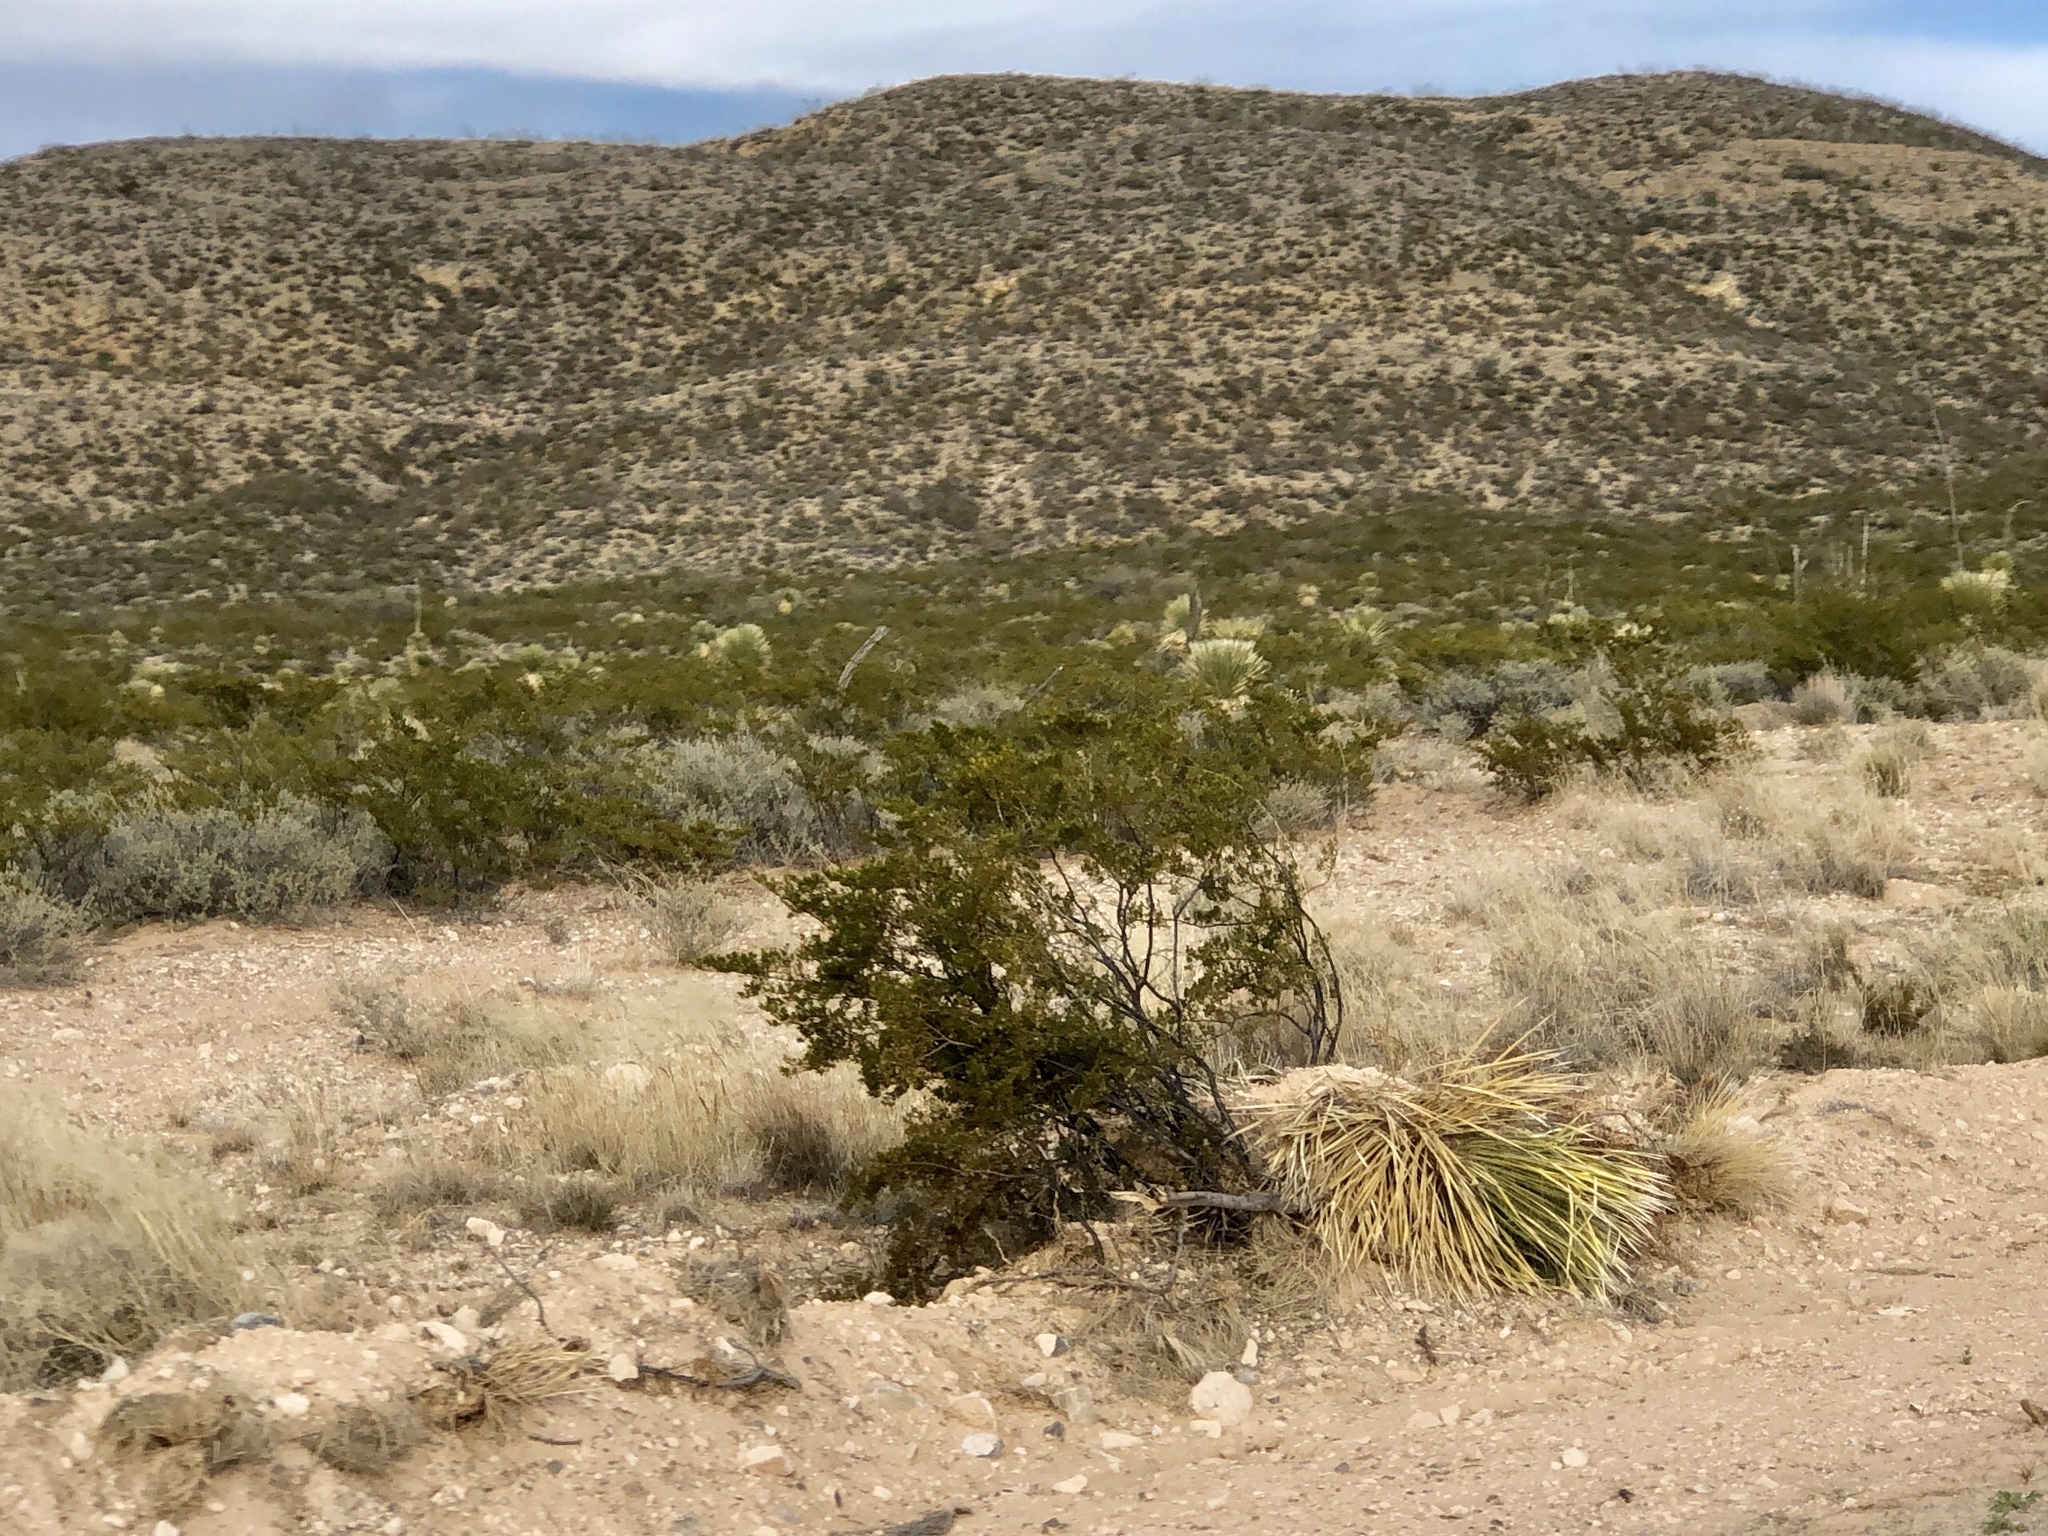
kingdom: Plantae
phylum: Tracheophyta
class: Magnoliopsida
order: Zygophyllales
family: Zygophyllaceae
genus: Larrea
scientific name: Larrea tridentata
